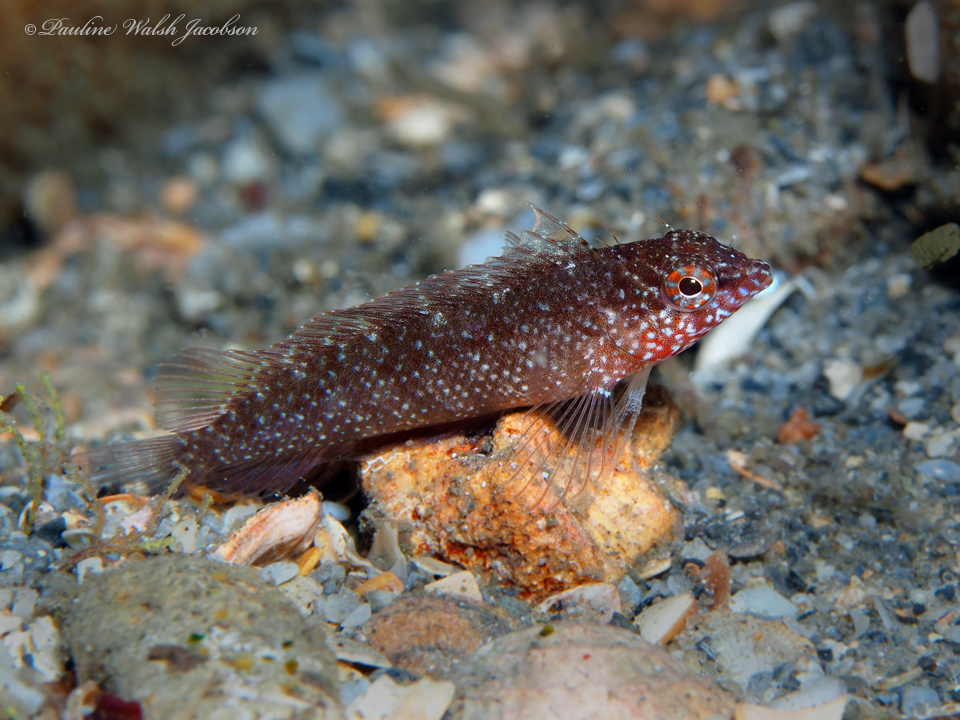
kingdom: Animalia
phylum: Chordata
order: Perciformes
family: Labrisomidae
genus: Malacoctenus
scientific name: Malacoctenus macropus
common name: Rosy blenny
